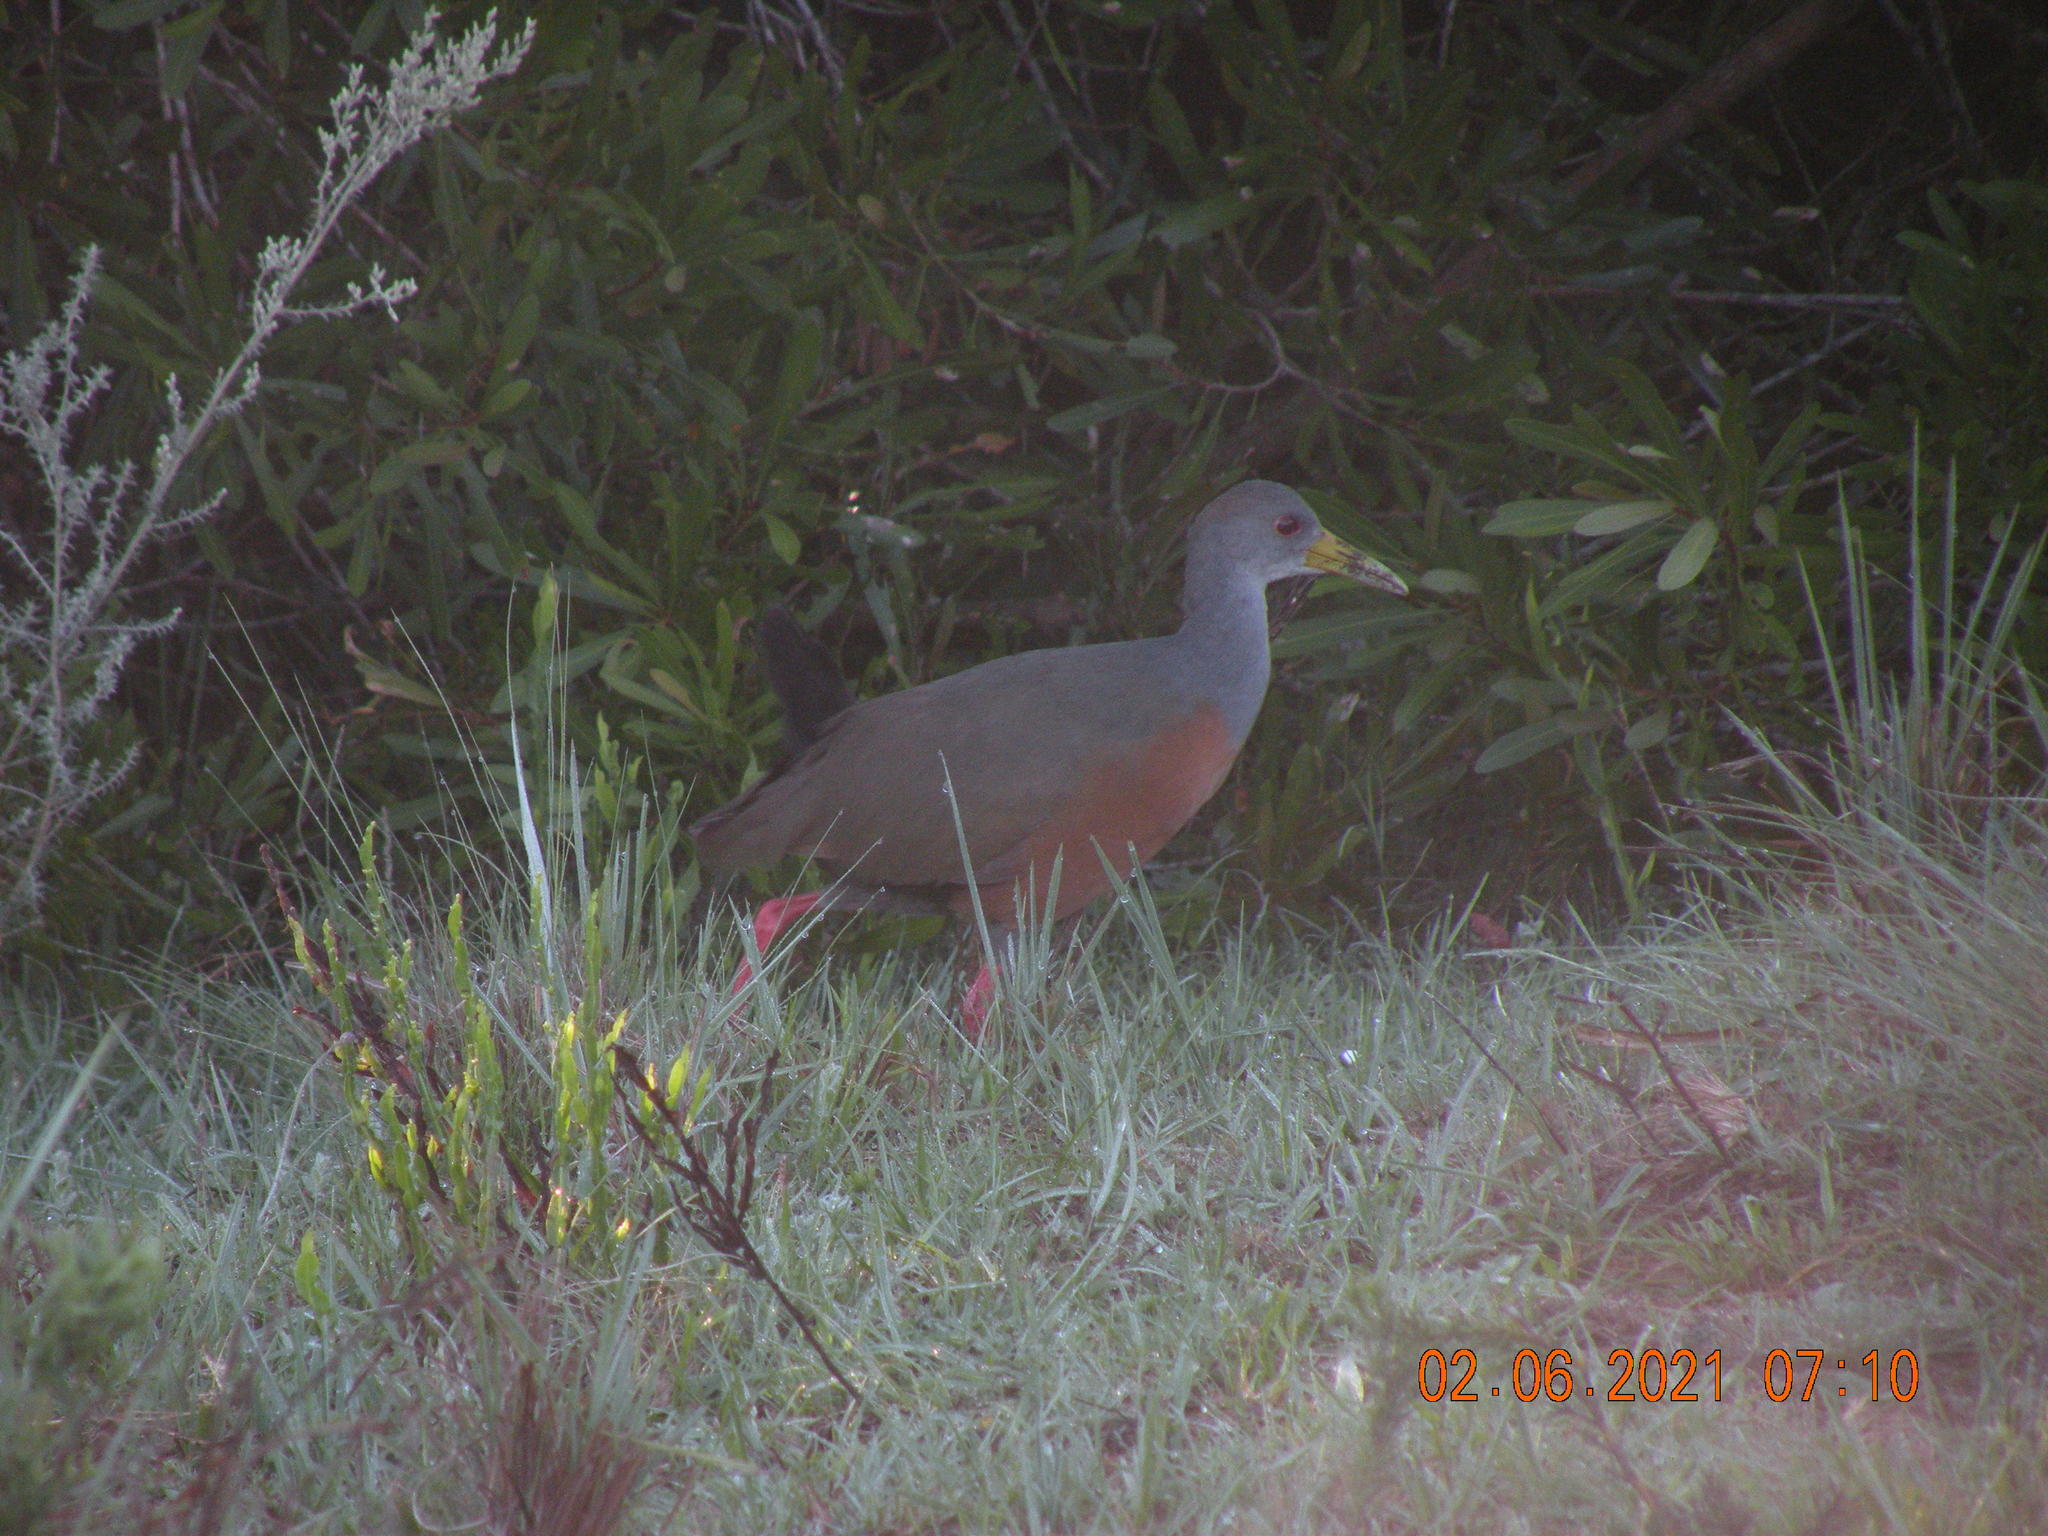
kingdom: Animalia
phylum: Chordata
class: Aves
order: Gruiformes
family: Rallidae
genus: Aramides
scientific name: Aramides cajanea
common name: Gray-necked wood-rail
